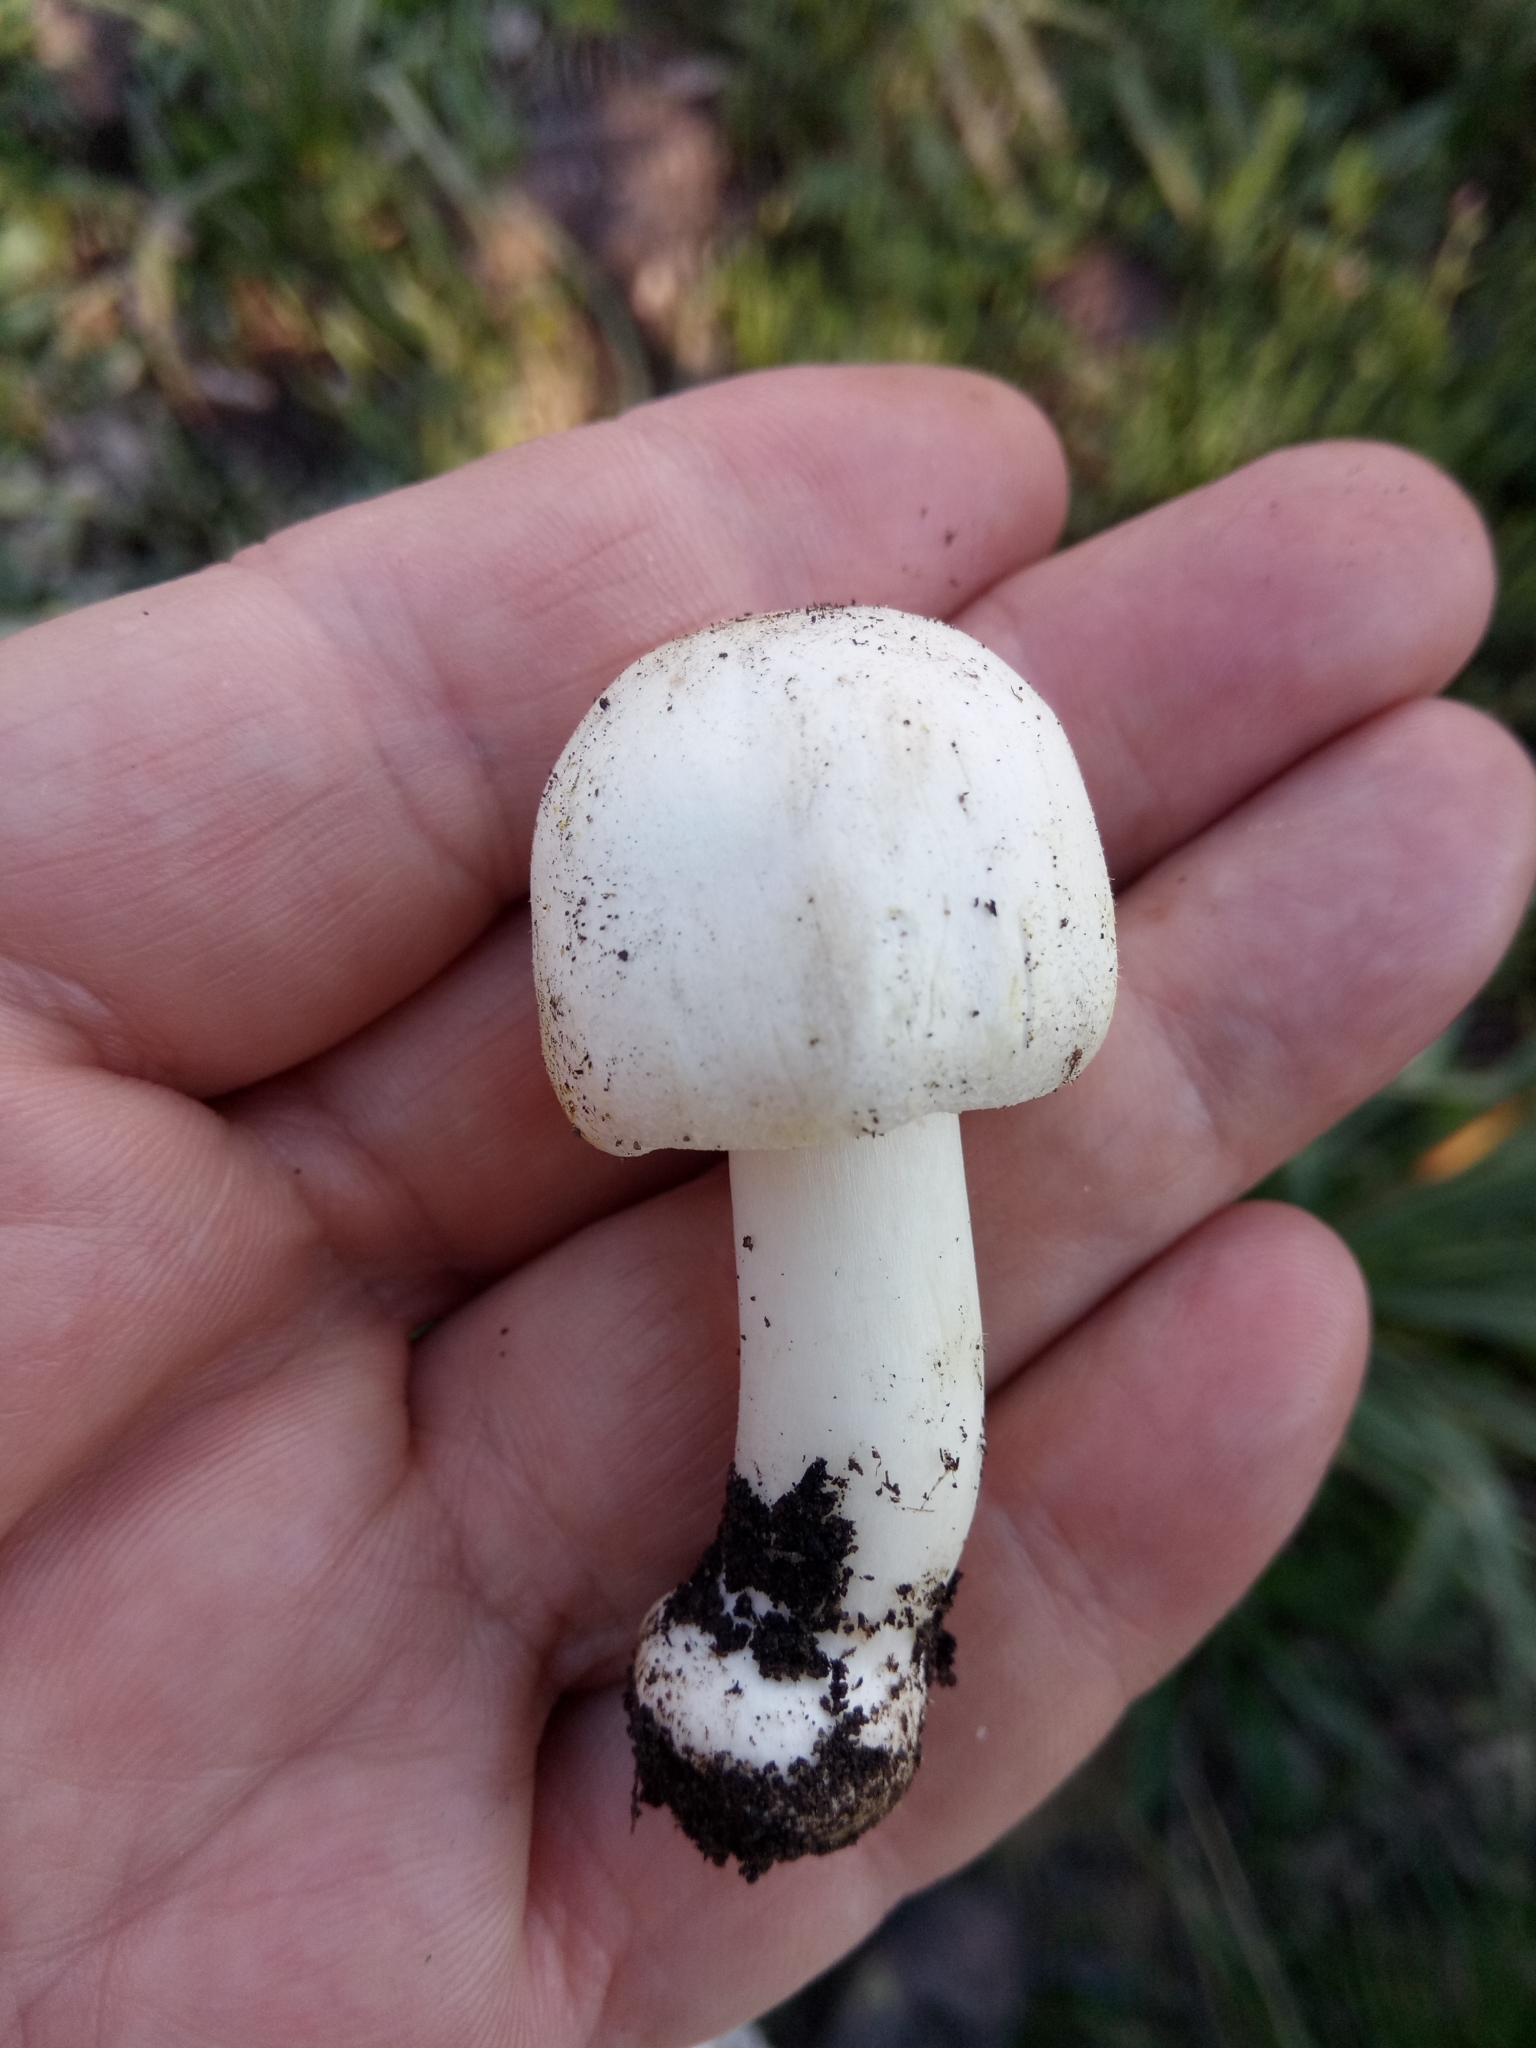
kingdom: Fungi
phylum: Basidiomycota
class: Agaricomycetes
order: Agaricales
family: Agaricaceae
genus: Agaricus
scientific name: Agaricus arvensis
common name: Horse mushroom
